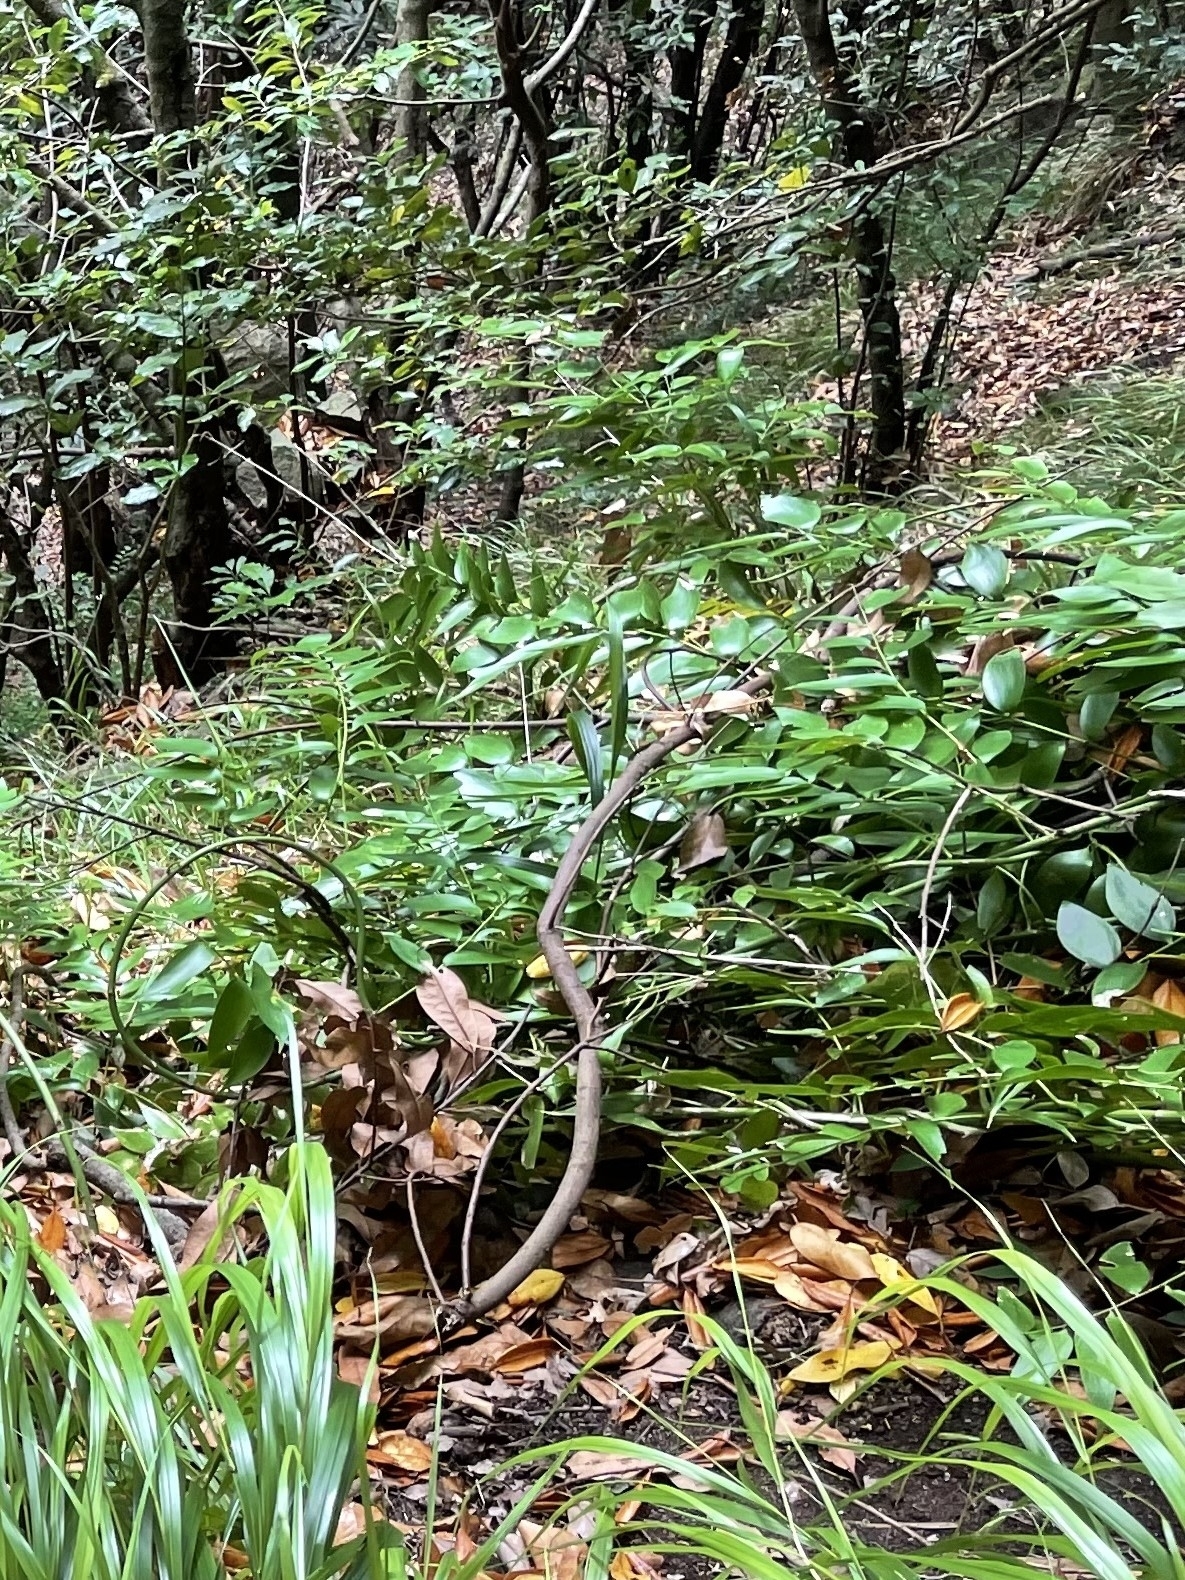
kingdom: Plantae
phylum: Tracheophyta
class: Liliopsida
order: Asparagales
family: Asparagaceae
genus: Semele
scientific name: Semele androgyna
